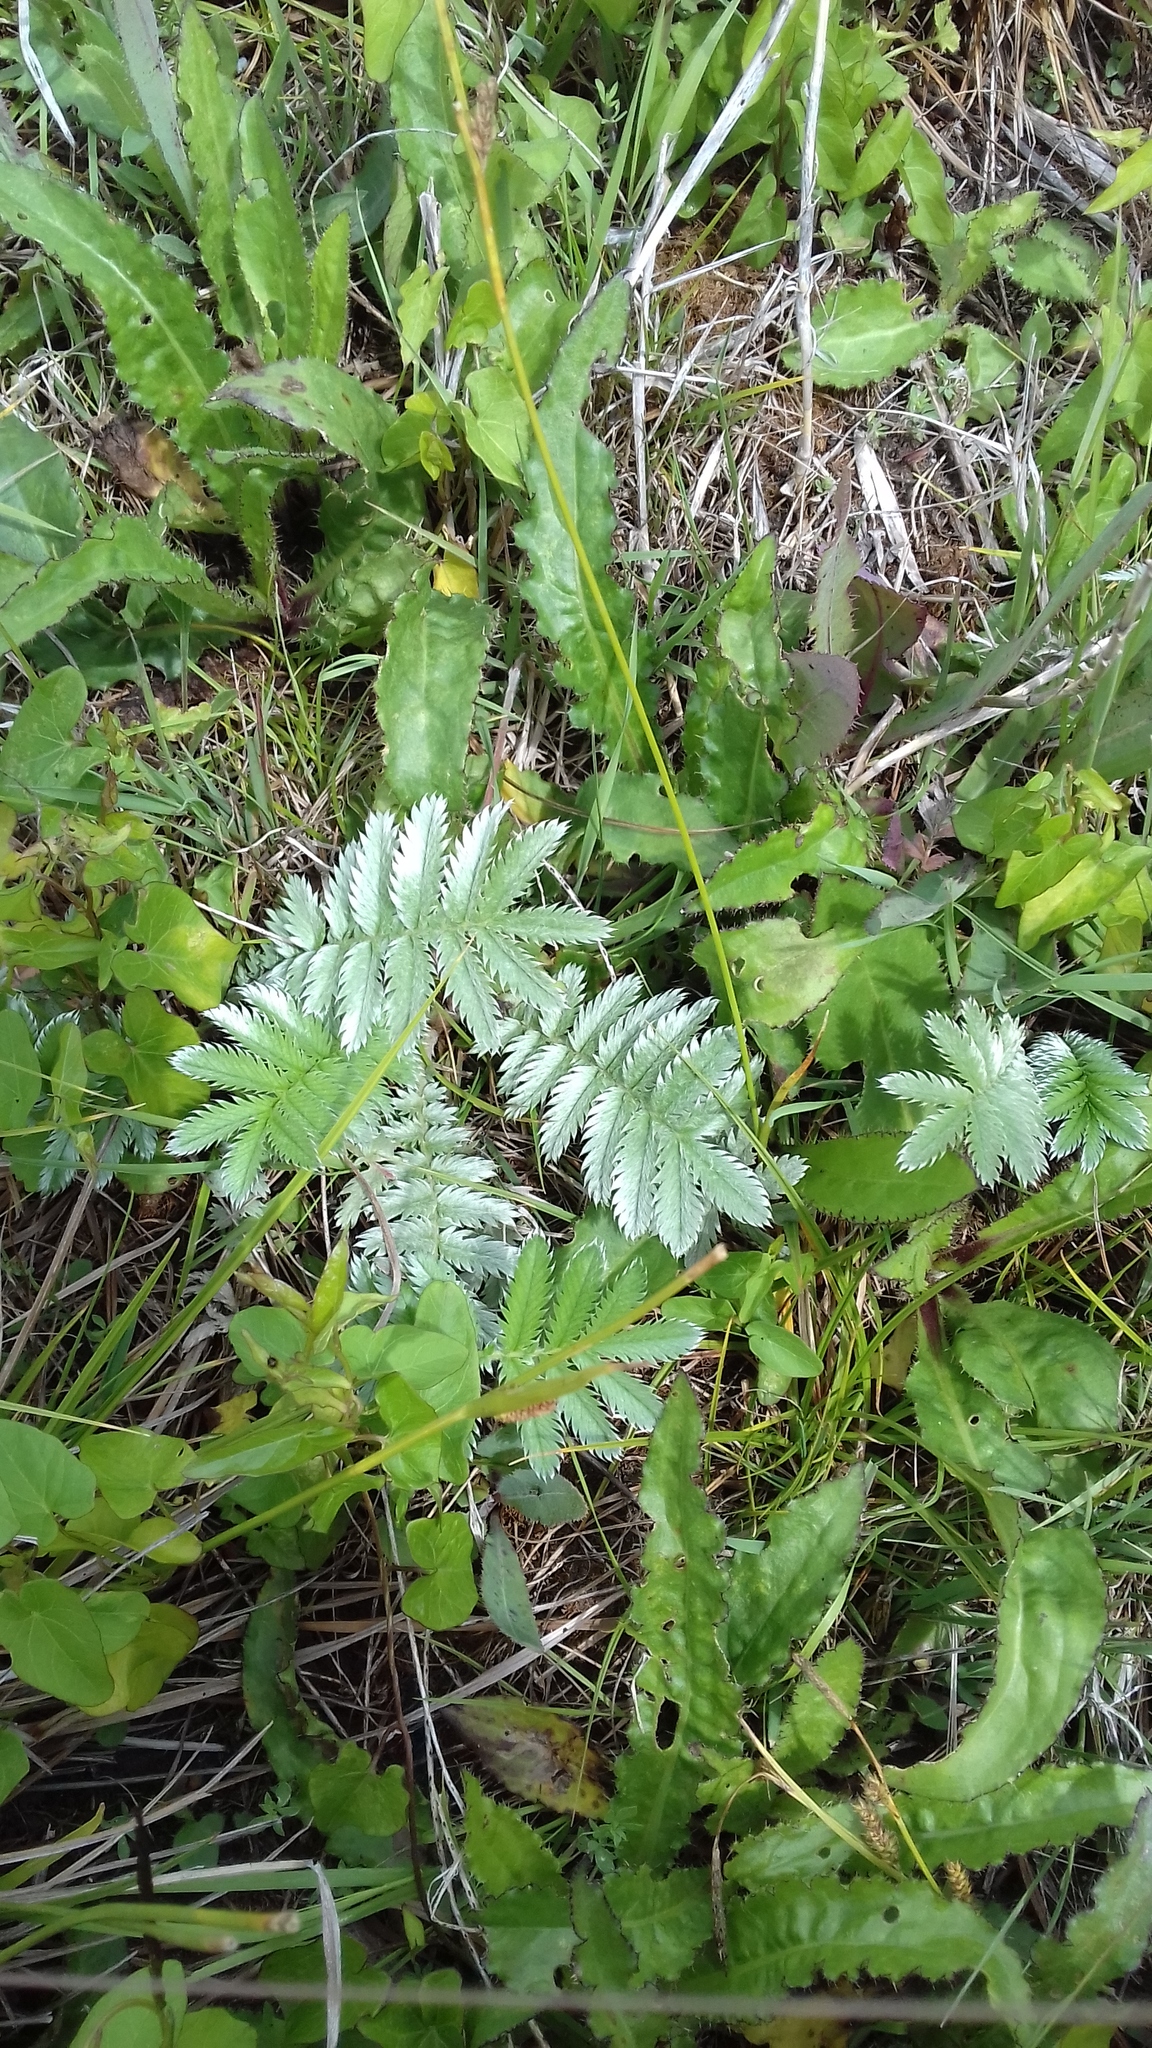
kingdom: Plantae
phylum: Tracheophyta
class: Magnoliopsida
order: Rosales
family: Rosaceae
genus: Argentina
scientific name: Argentina anserina
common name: Common silverweed
